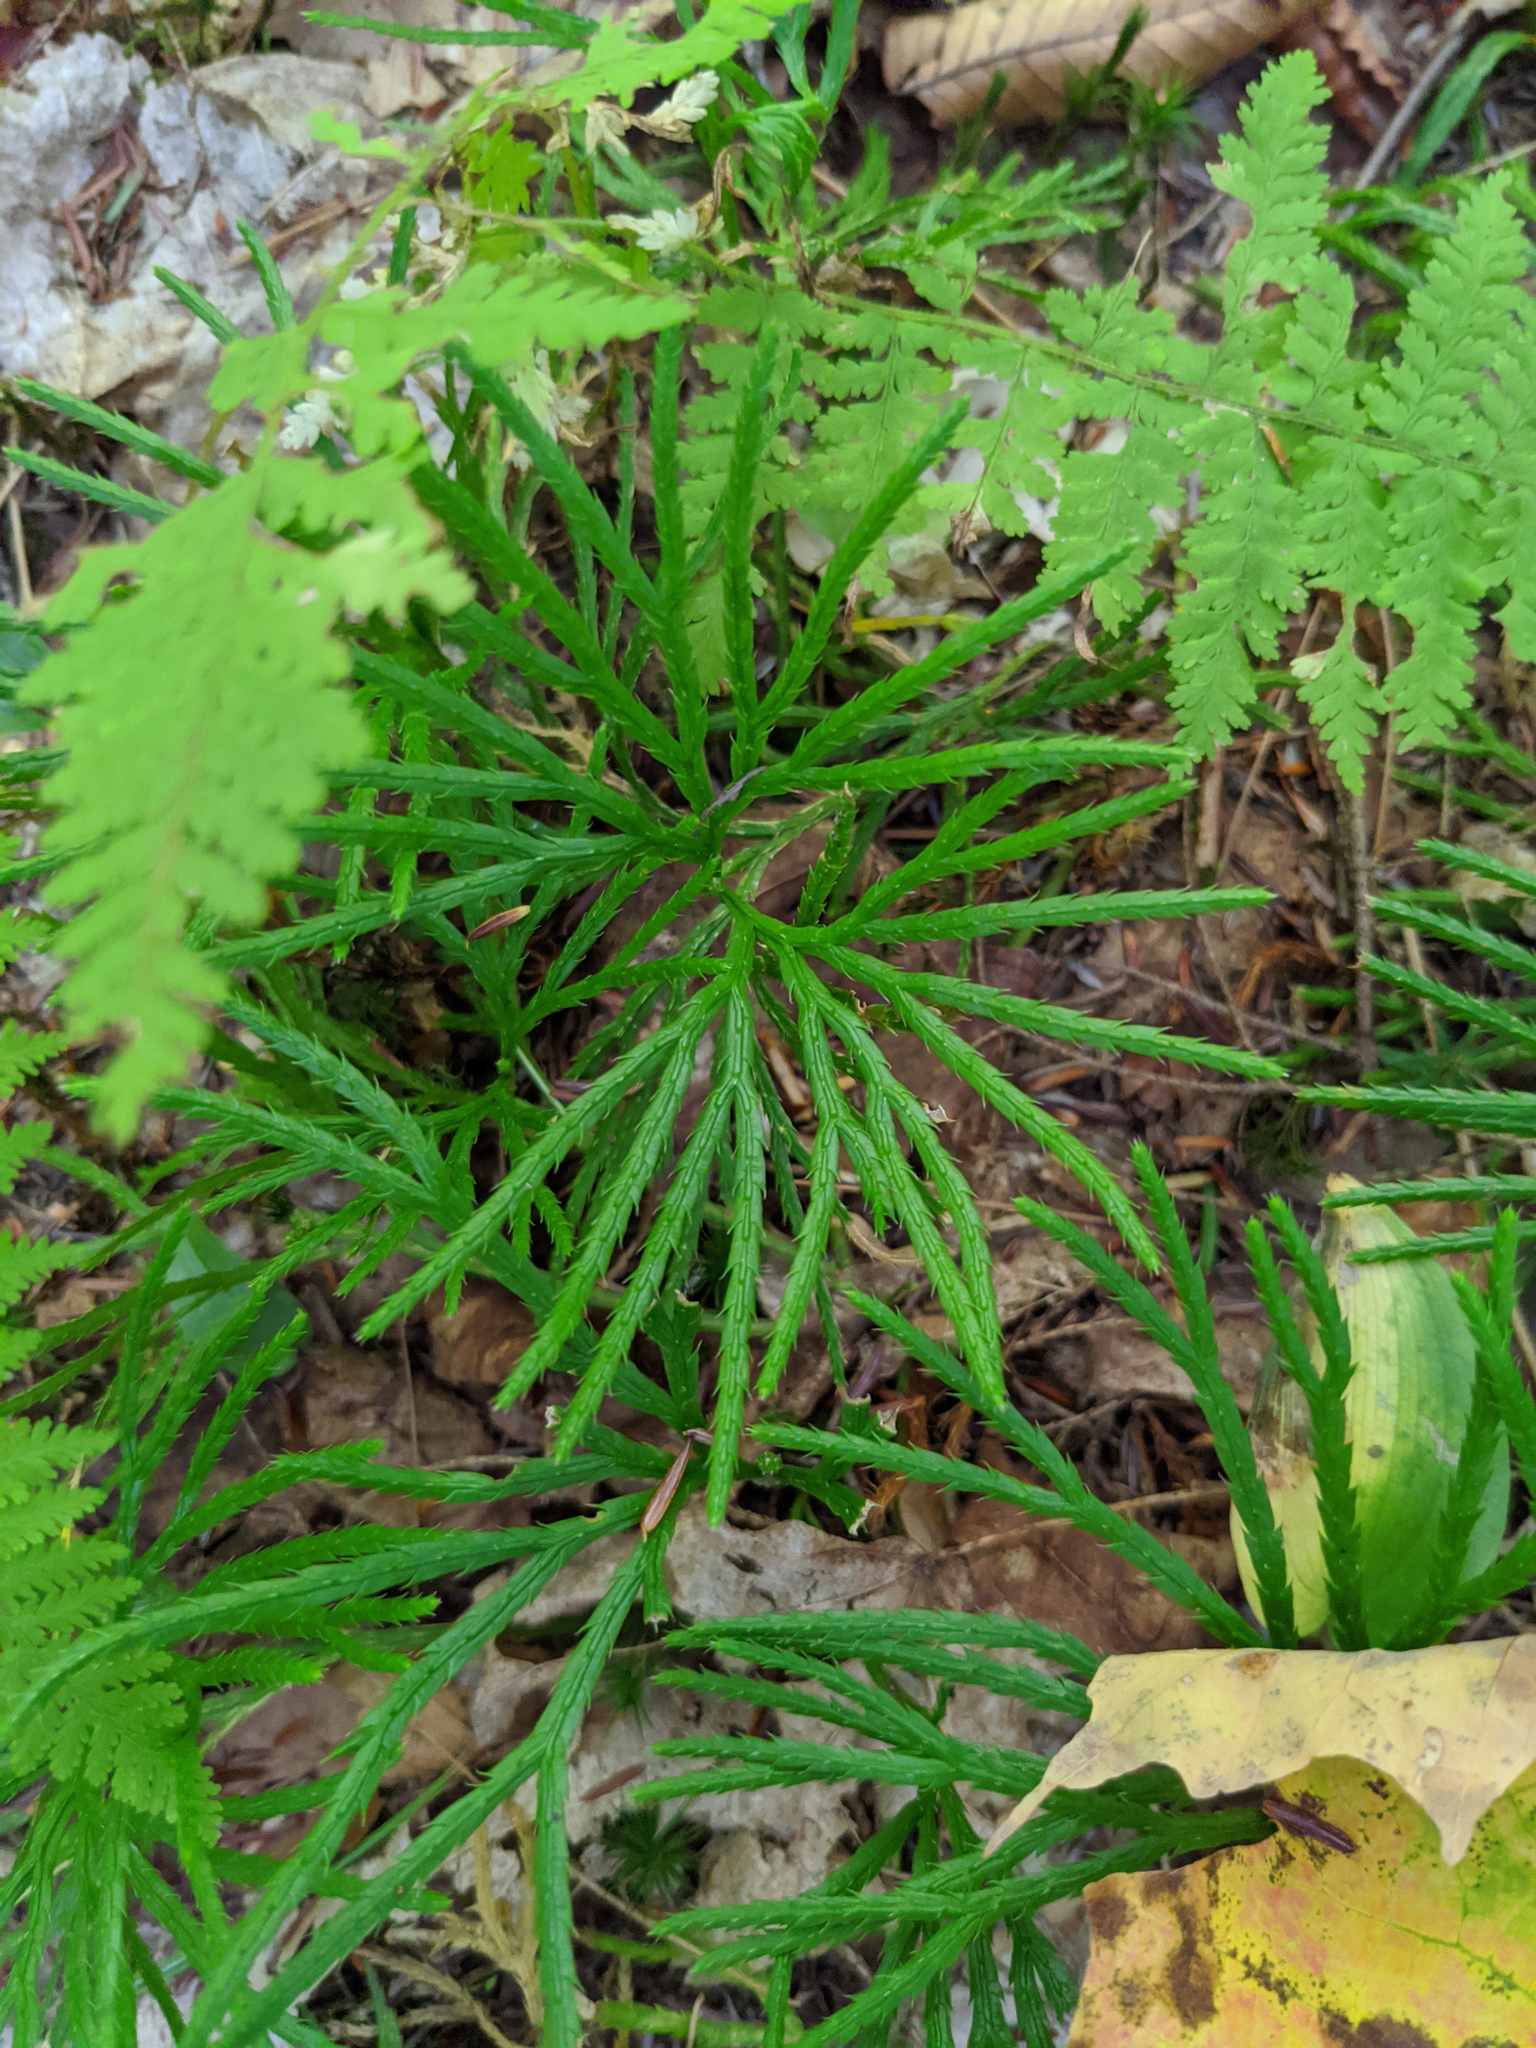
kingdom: Plantae
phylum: Tracheophyta
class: Lycopodiopsida
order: Lycopodiales
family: Lycopodiaceae
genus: Diphasiastrum
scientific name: Diphasiastrum digitatum
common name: Southern running-pine
